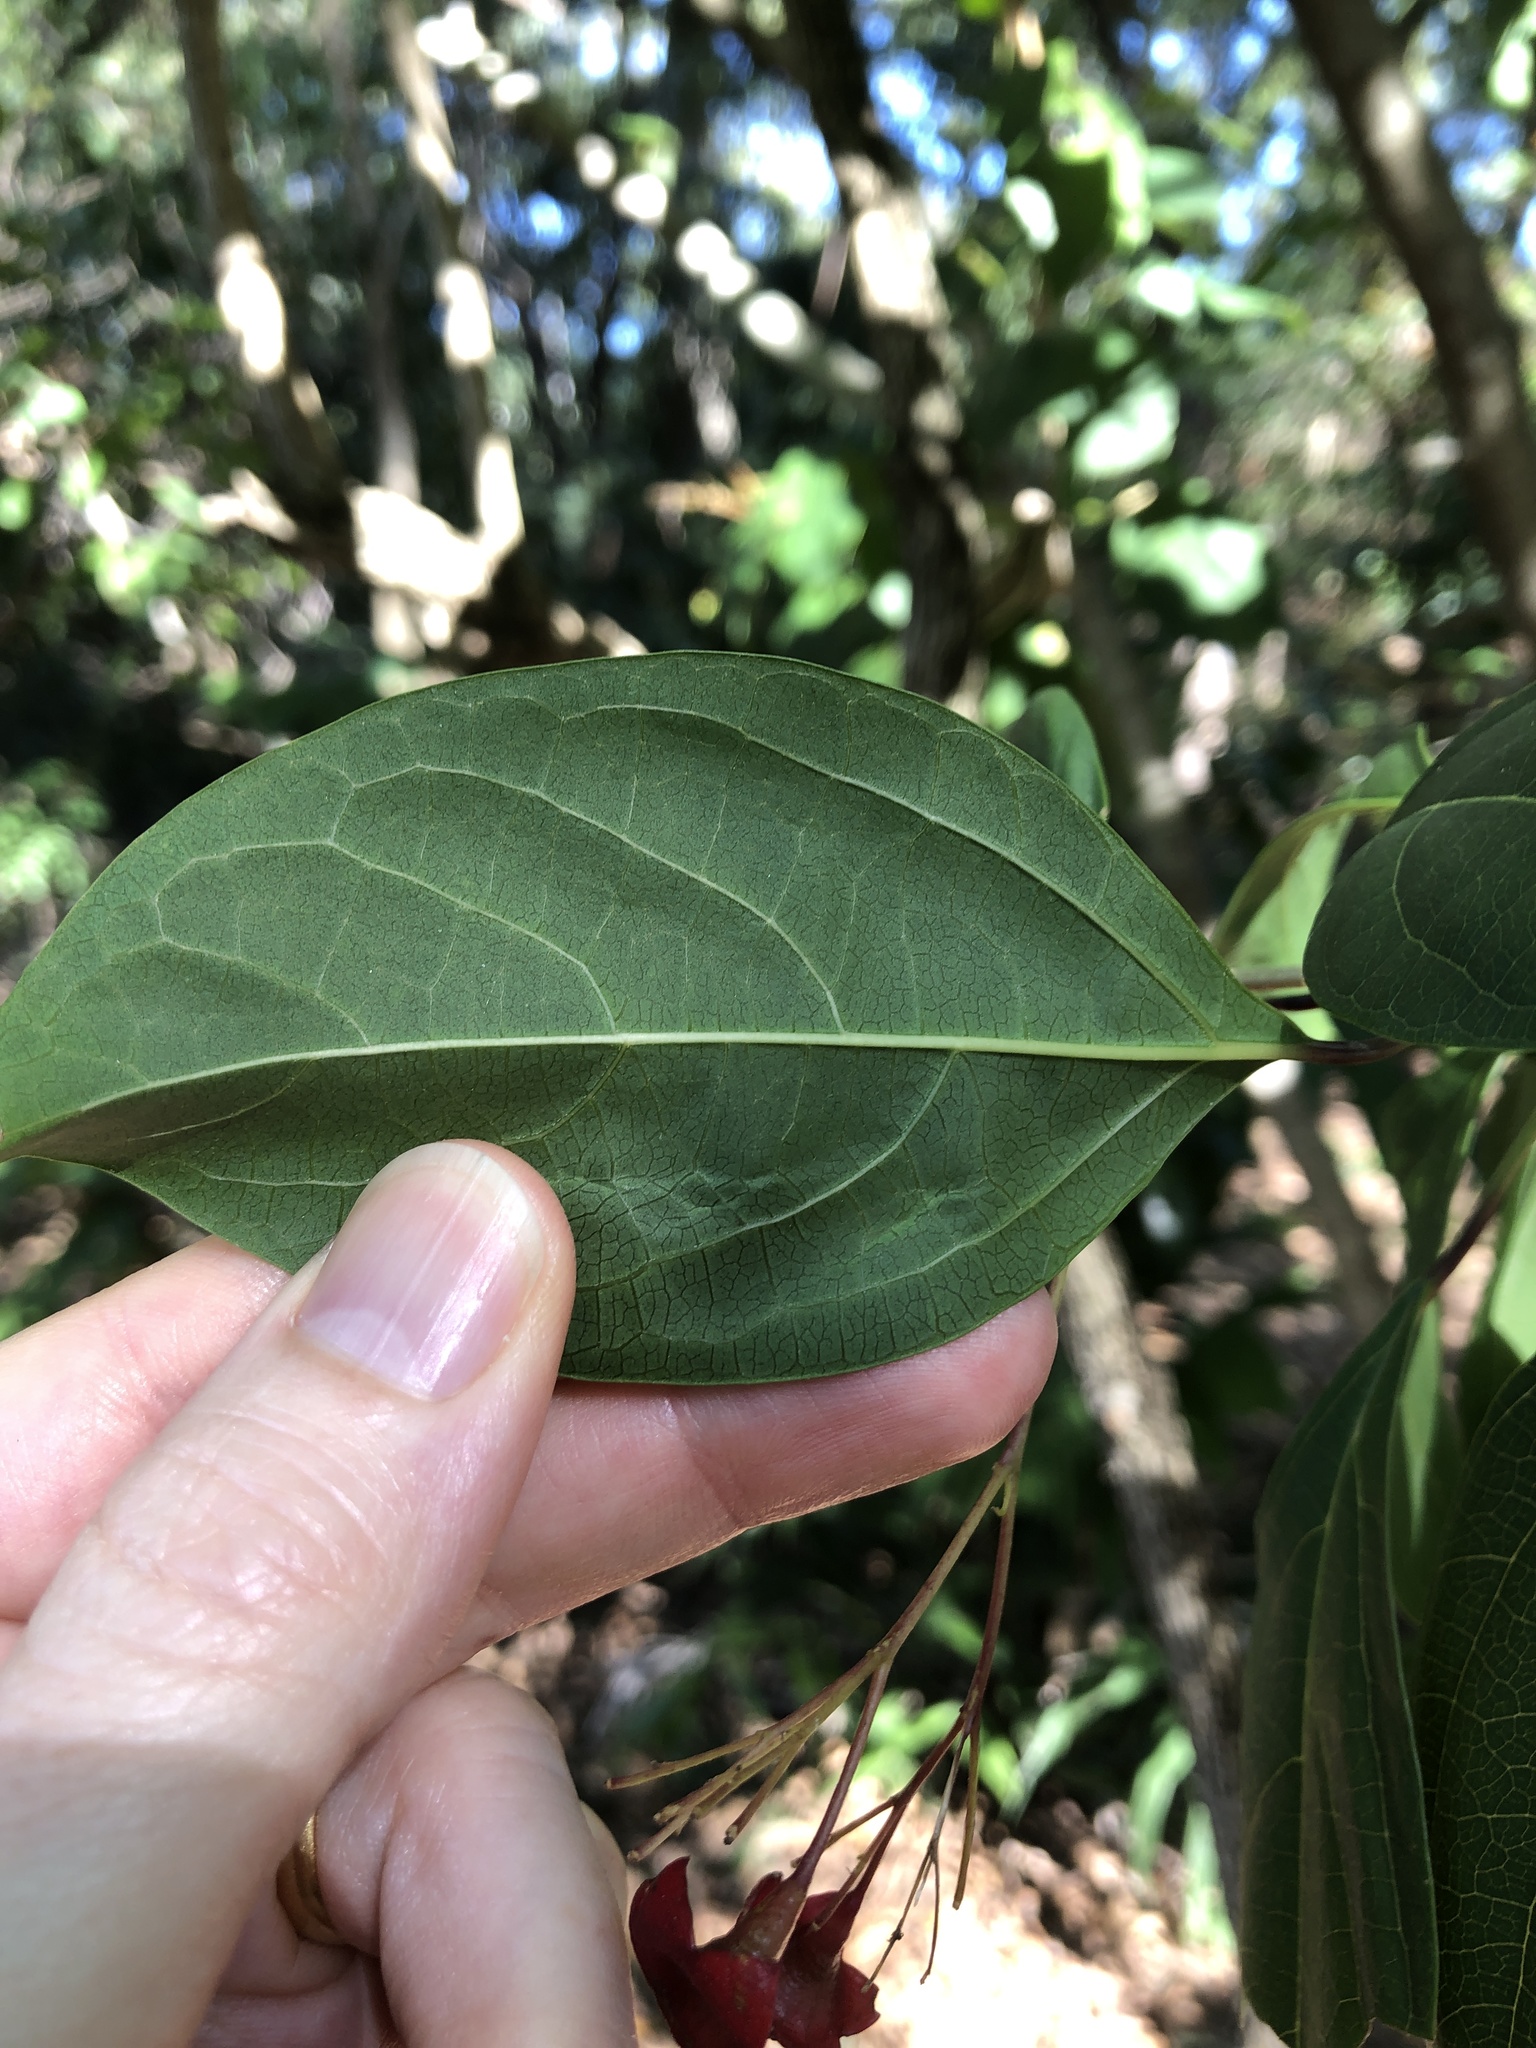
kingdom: Plantae
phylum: Tracheophyta
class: Magnoliopsida
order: Lamiales
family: Lamiaceae
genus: Clerodendrum
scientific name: Clerodendrum floribundum
